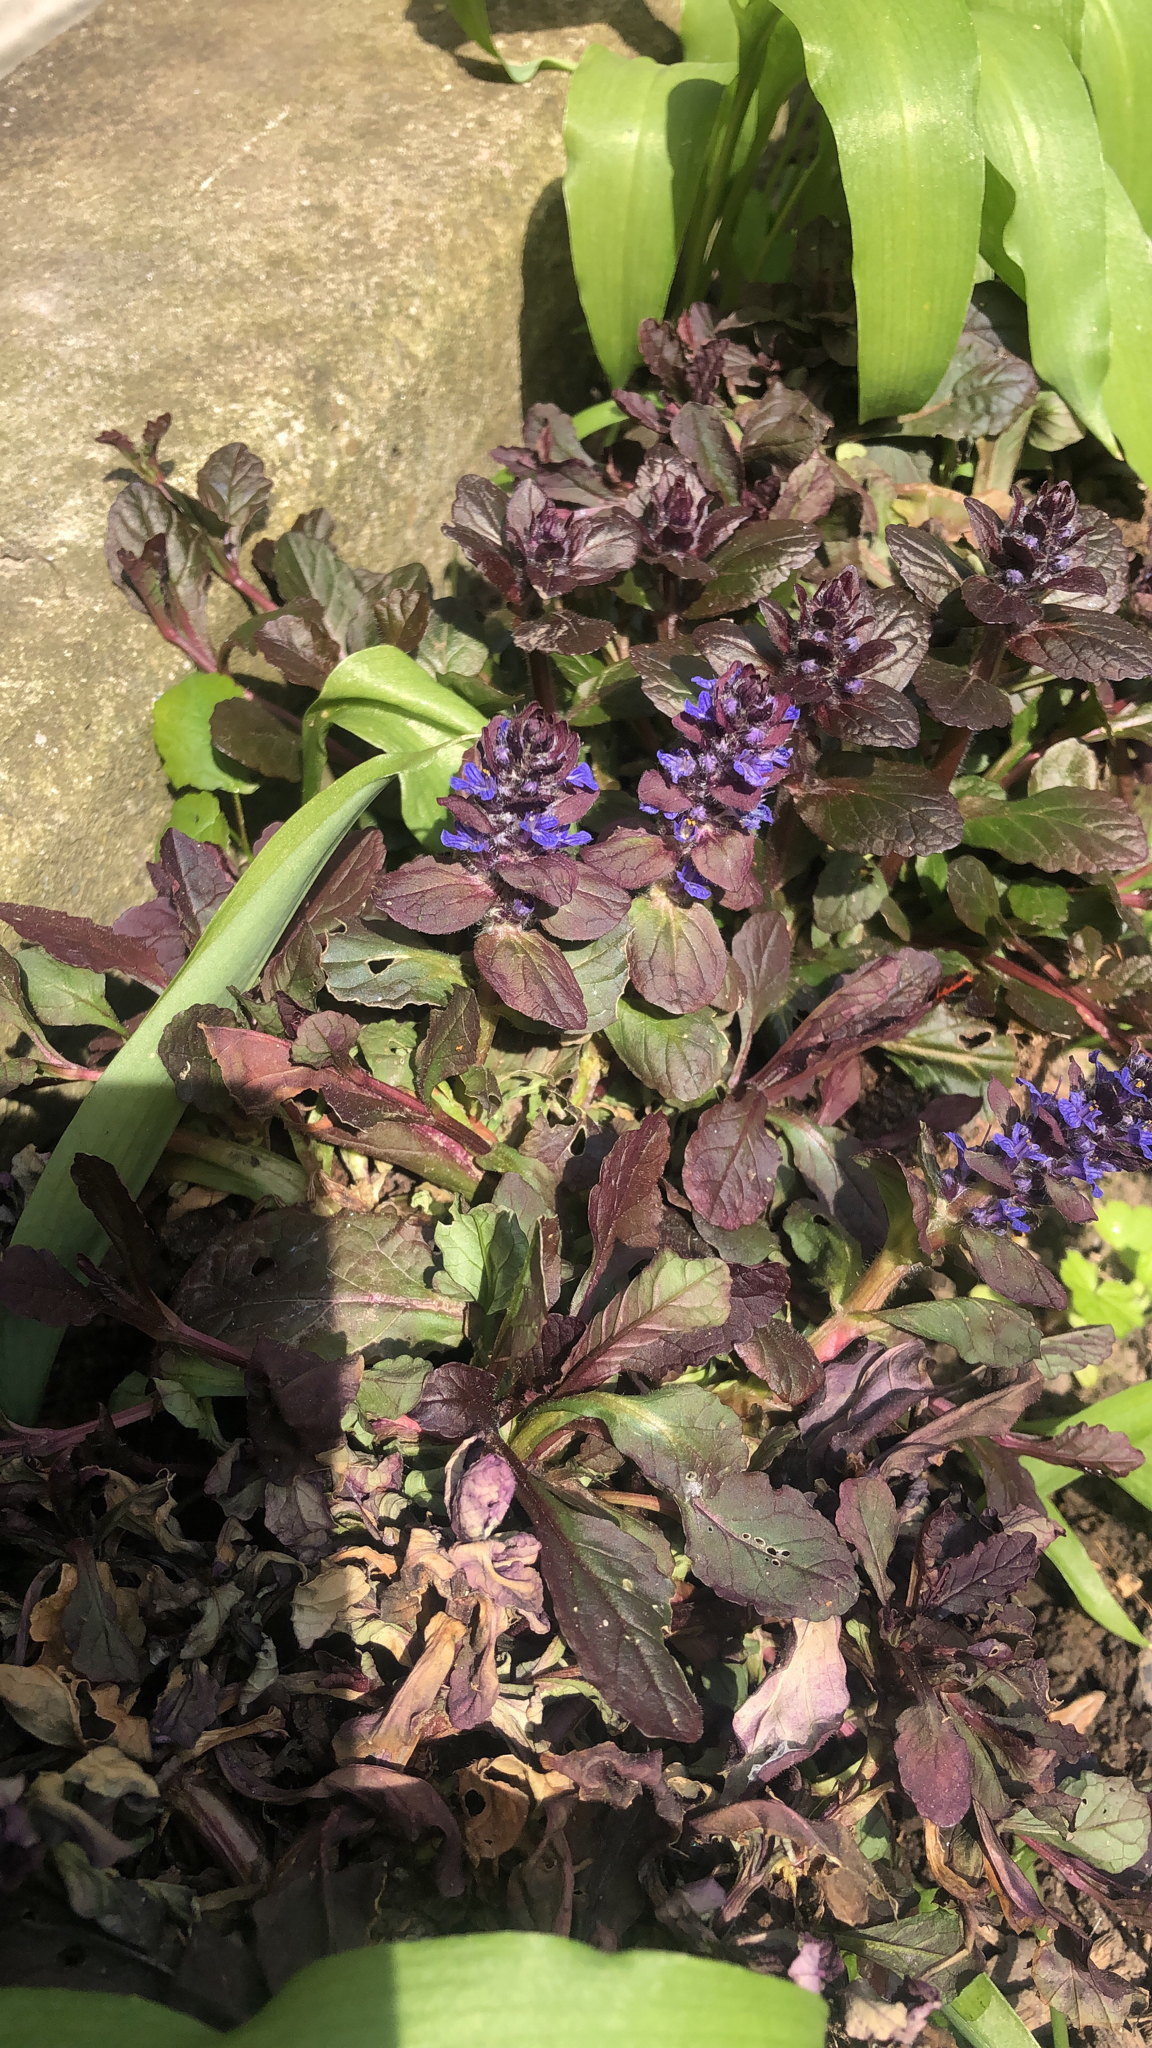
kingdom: Plantae
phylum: Tracheophyta
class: Magnoliopsida
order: Lamiales
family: Lamiaceae
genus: Ajuga
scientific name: Ajuga reptans
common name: Bugle
